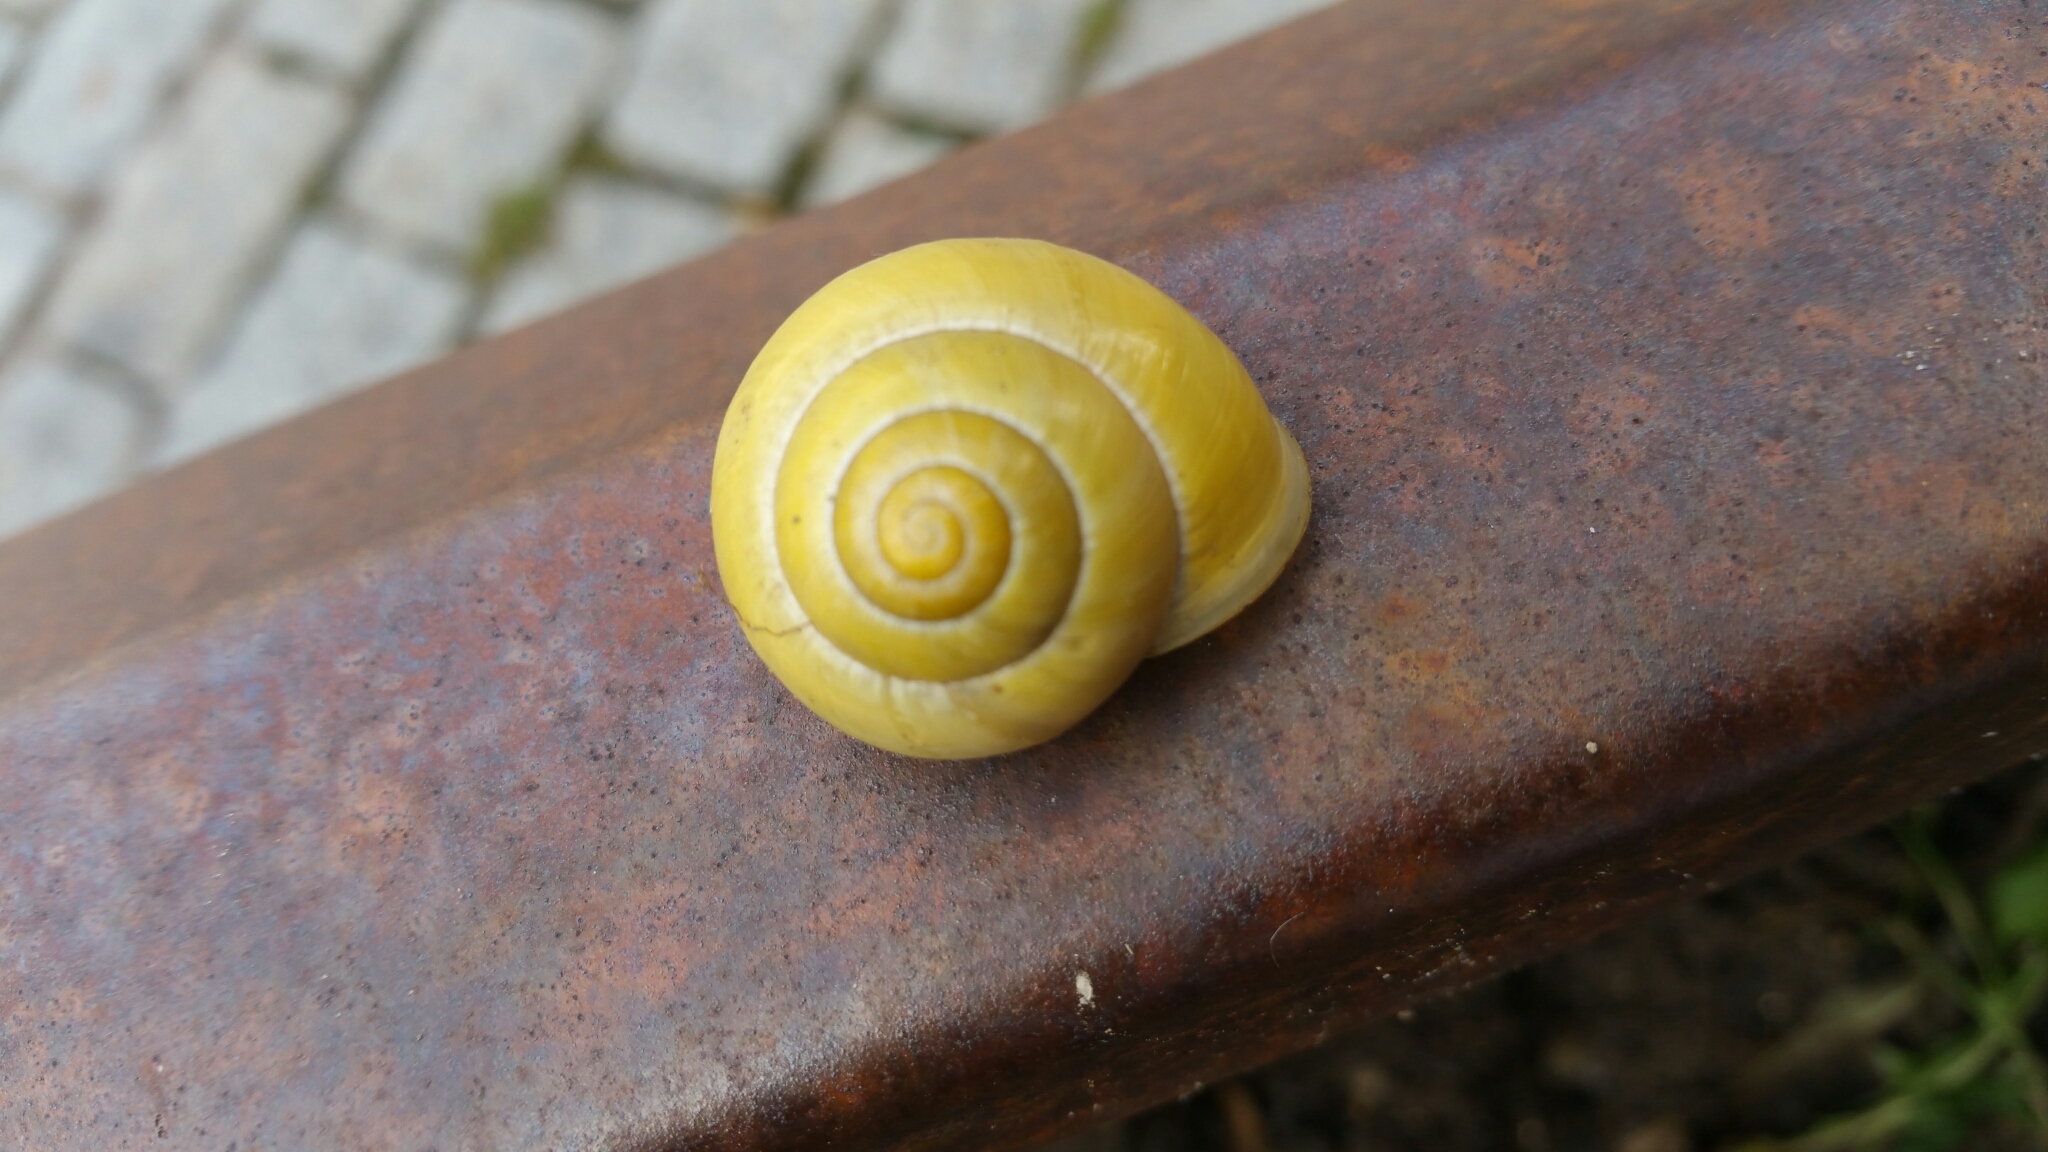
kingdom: Animalia
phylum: Mollusca
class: Gastropoda
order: Stylommatophora
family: Helicidae
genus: Cepaea
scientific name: Cepaea hortensis
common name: White-lip gardensnail
